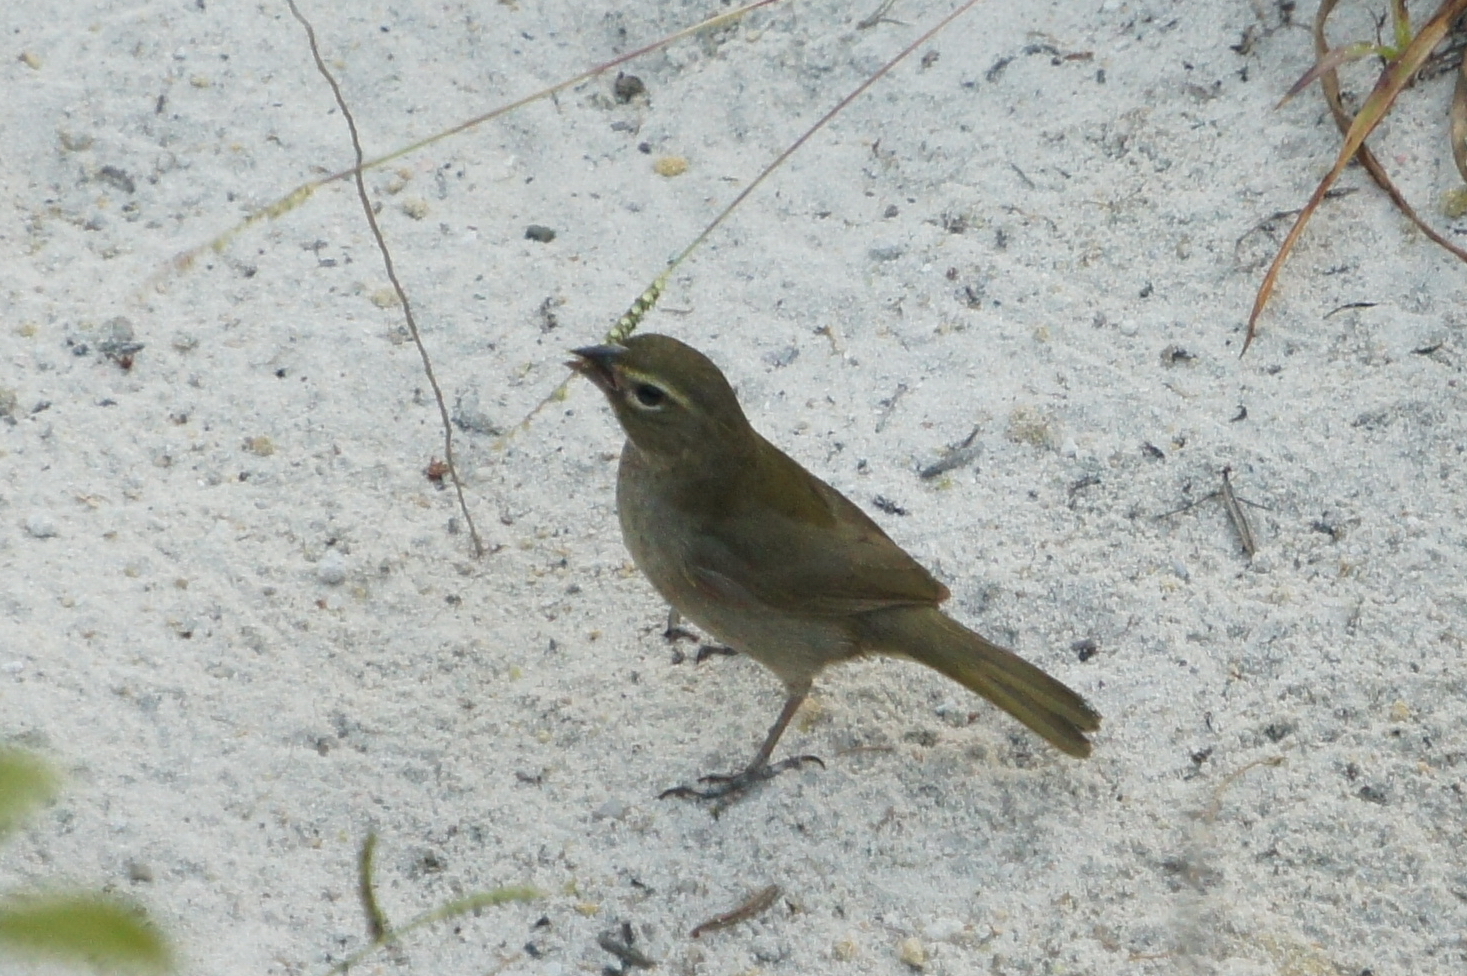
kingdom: Animalia
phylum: Chordata
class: Aves
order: Passeriformes
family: Thraupidae
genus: Tiaris
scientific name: Tiaris olivaceus
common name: Yellow-faced grassquit
